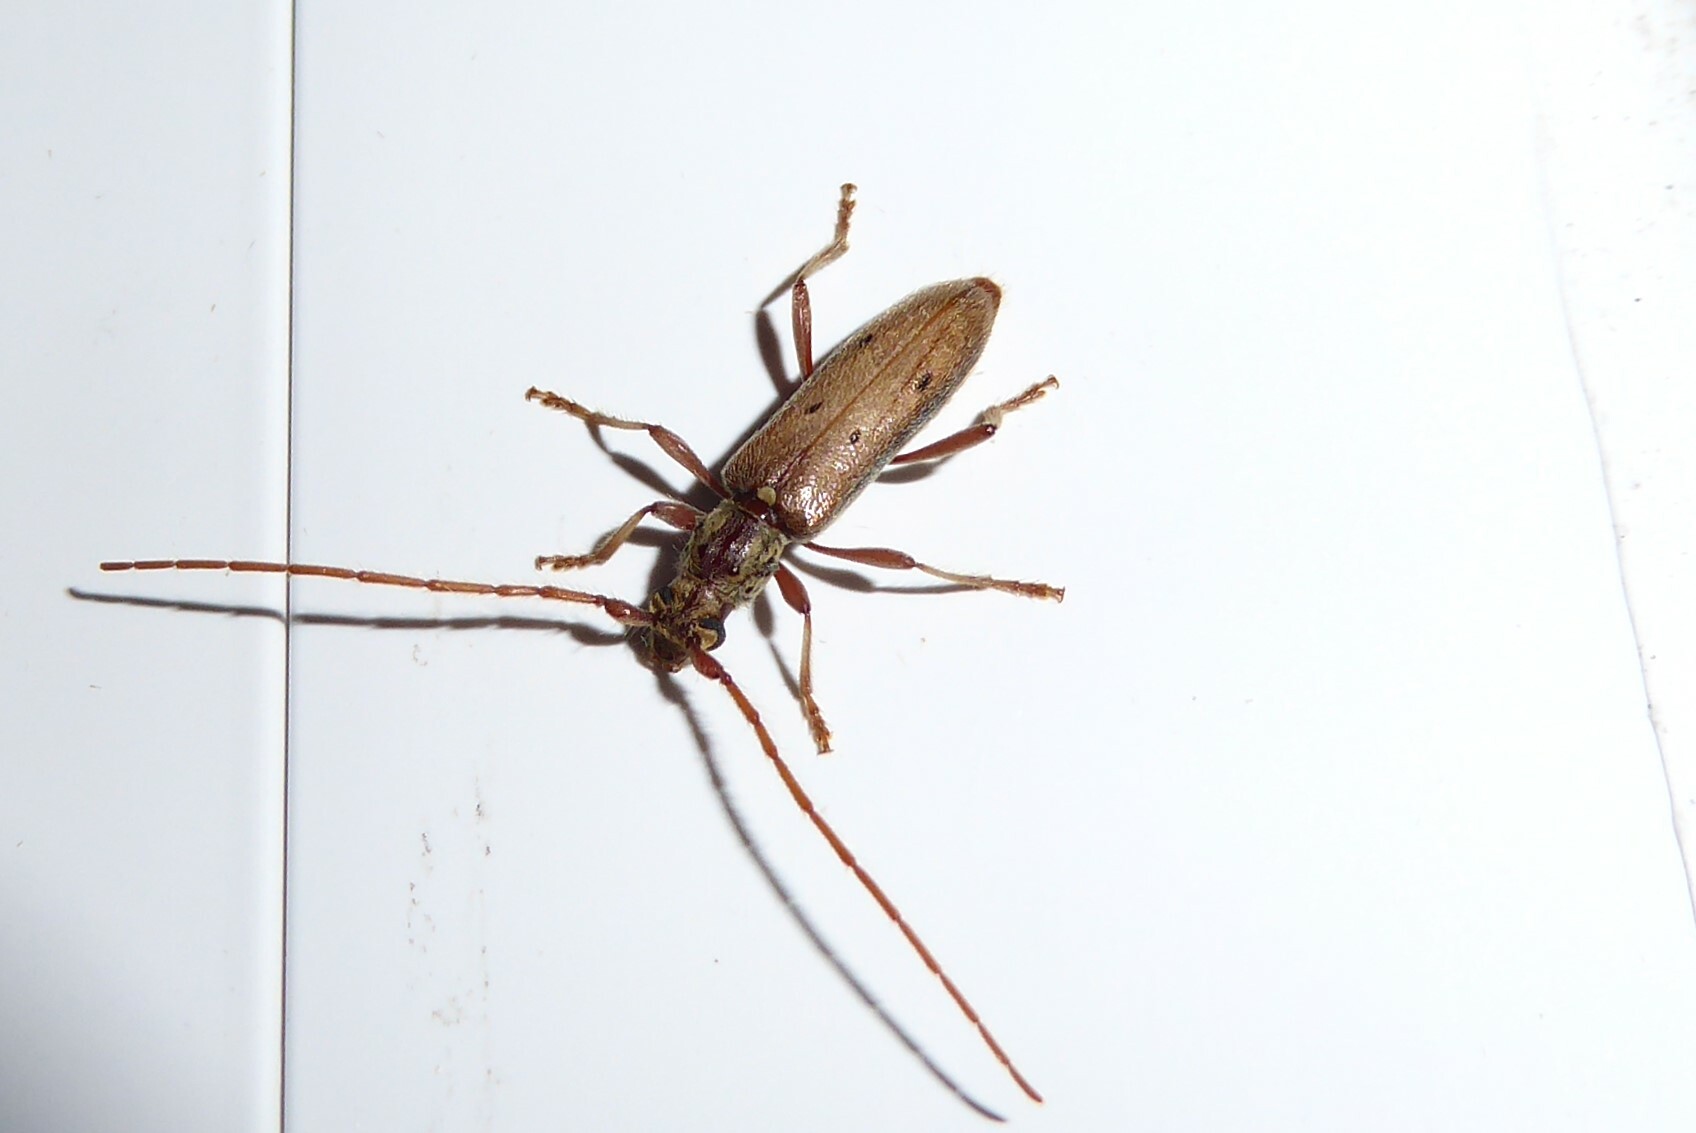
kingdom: Animalia
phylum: Arthropoda
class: Insecta
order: Coleoptera
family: Cerambycidae
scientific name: Cerambycidae
